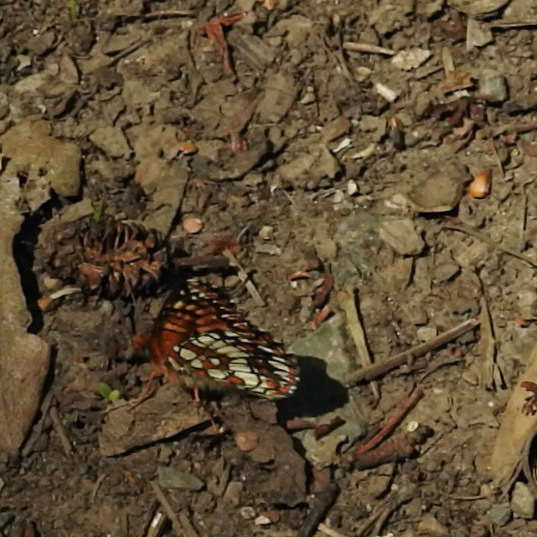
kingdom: Animalia
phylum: Arthropoda
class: Insecta
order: Lepidoptera
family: Nymphalidae
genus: Chlosyne
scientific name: Chlosyne palla
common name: Northern checkerspot
